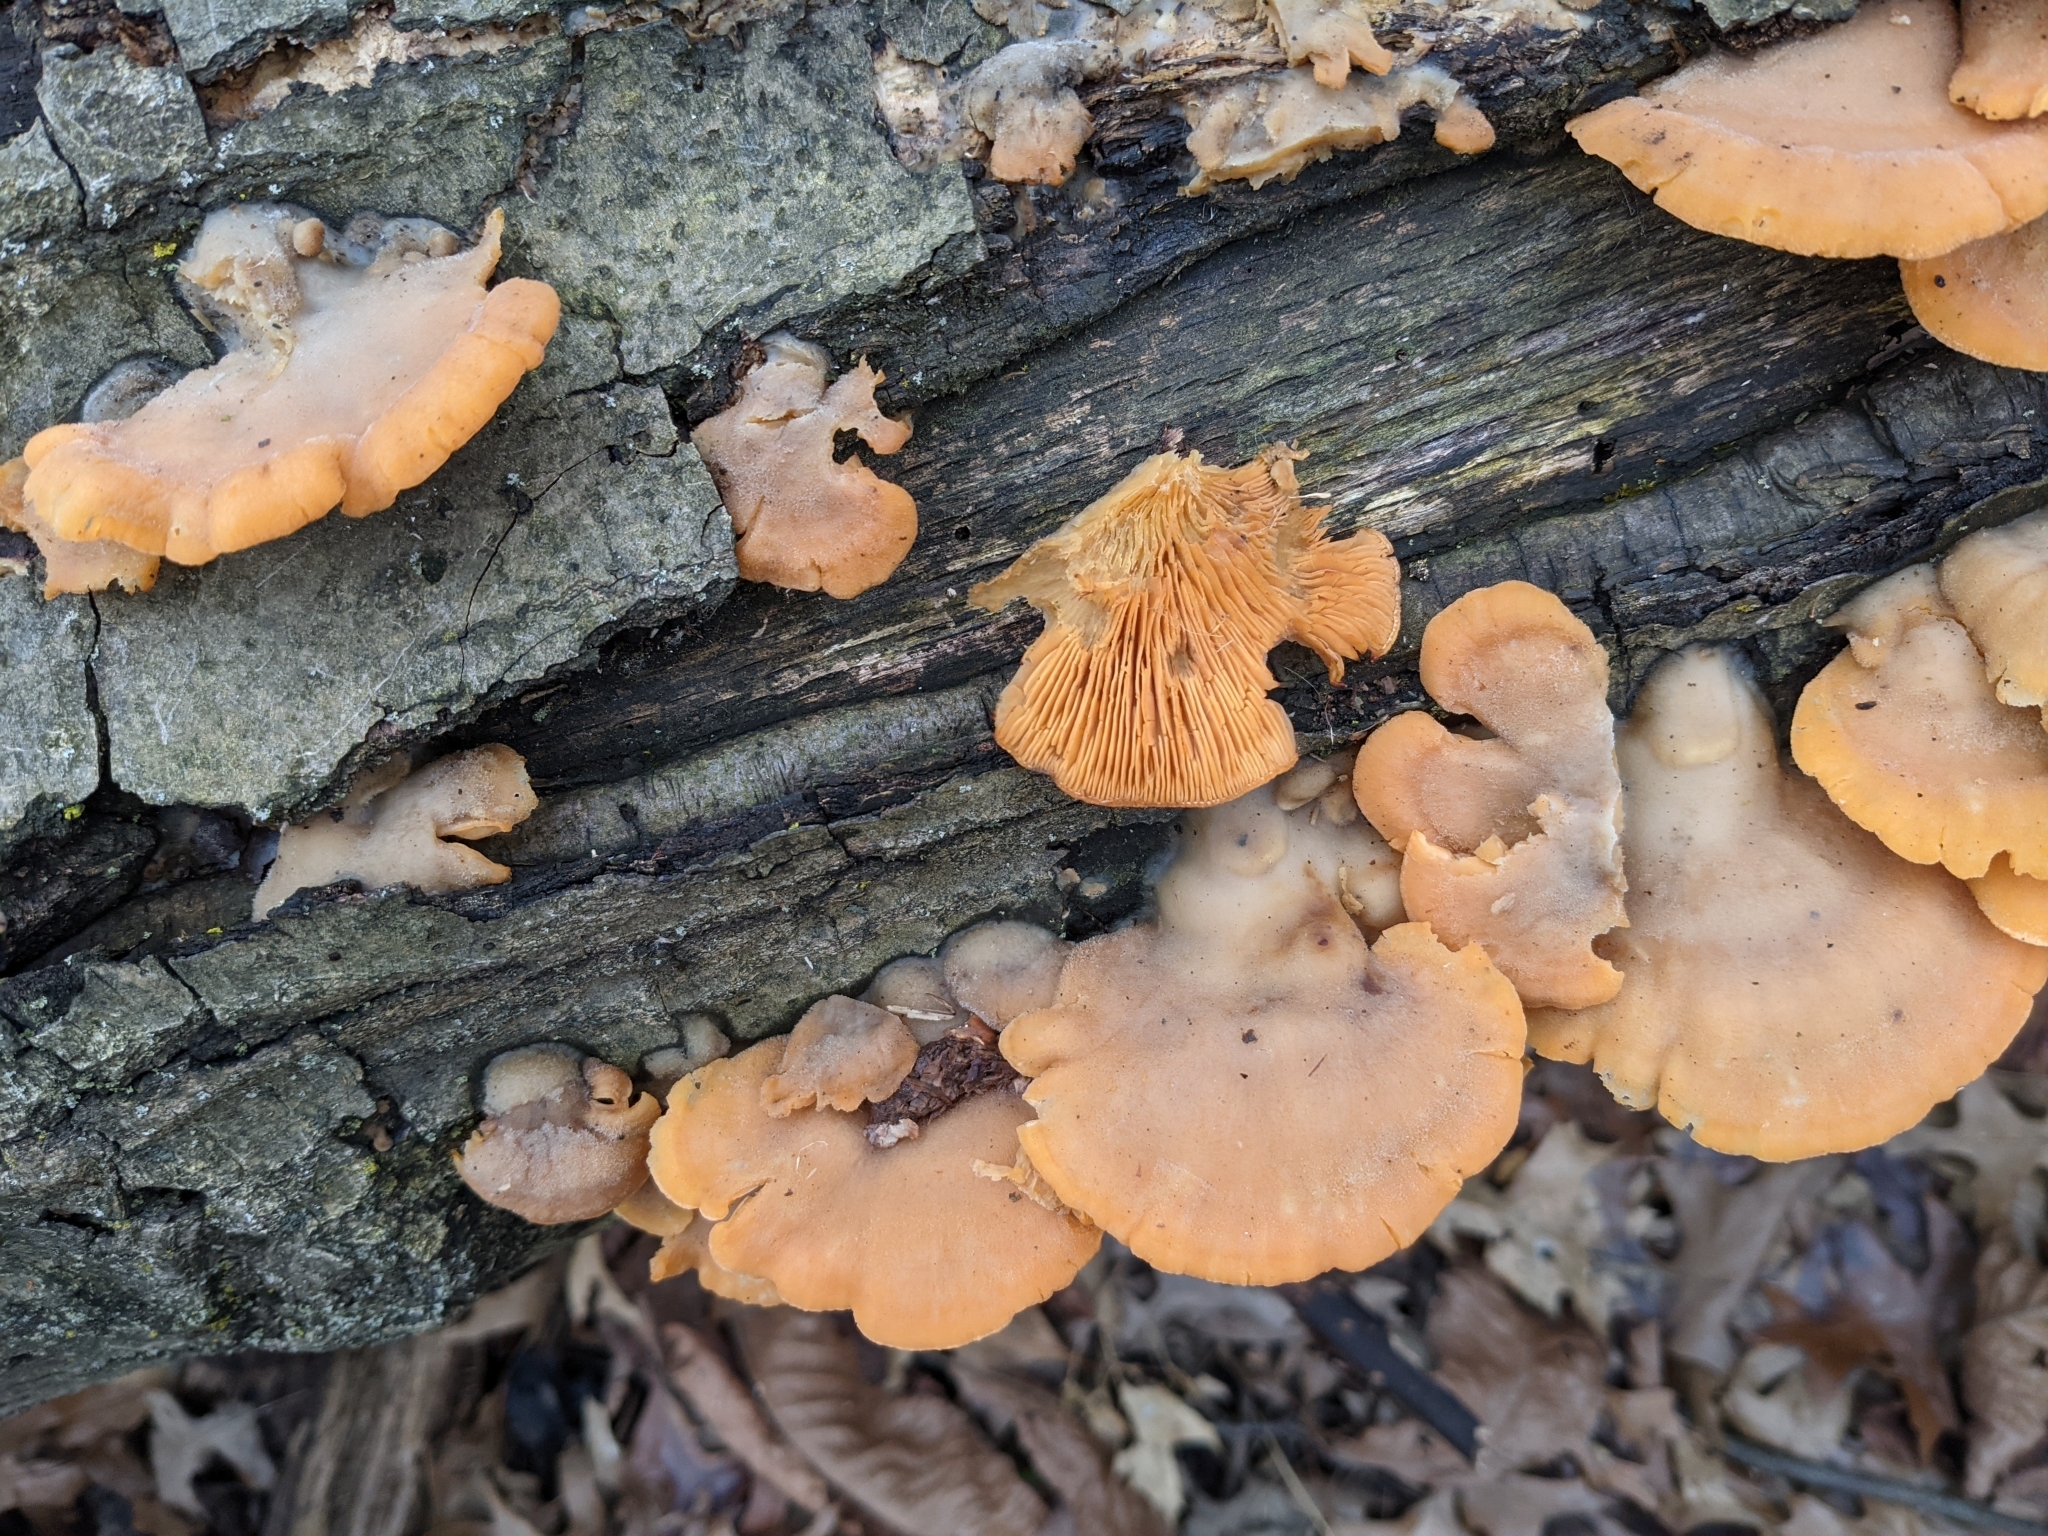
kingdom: Fungi
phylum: Basidiomycota
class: Agaricomycetes
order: Agaricales
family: Phyllotopsidaceae
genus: Phyllotopsis
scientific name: Phyllotopsis nidulans
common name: Orange mock oyster
